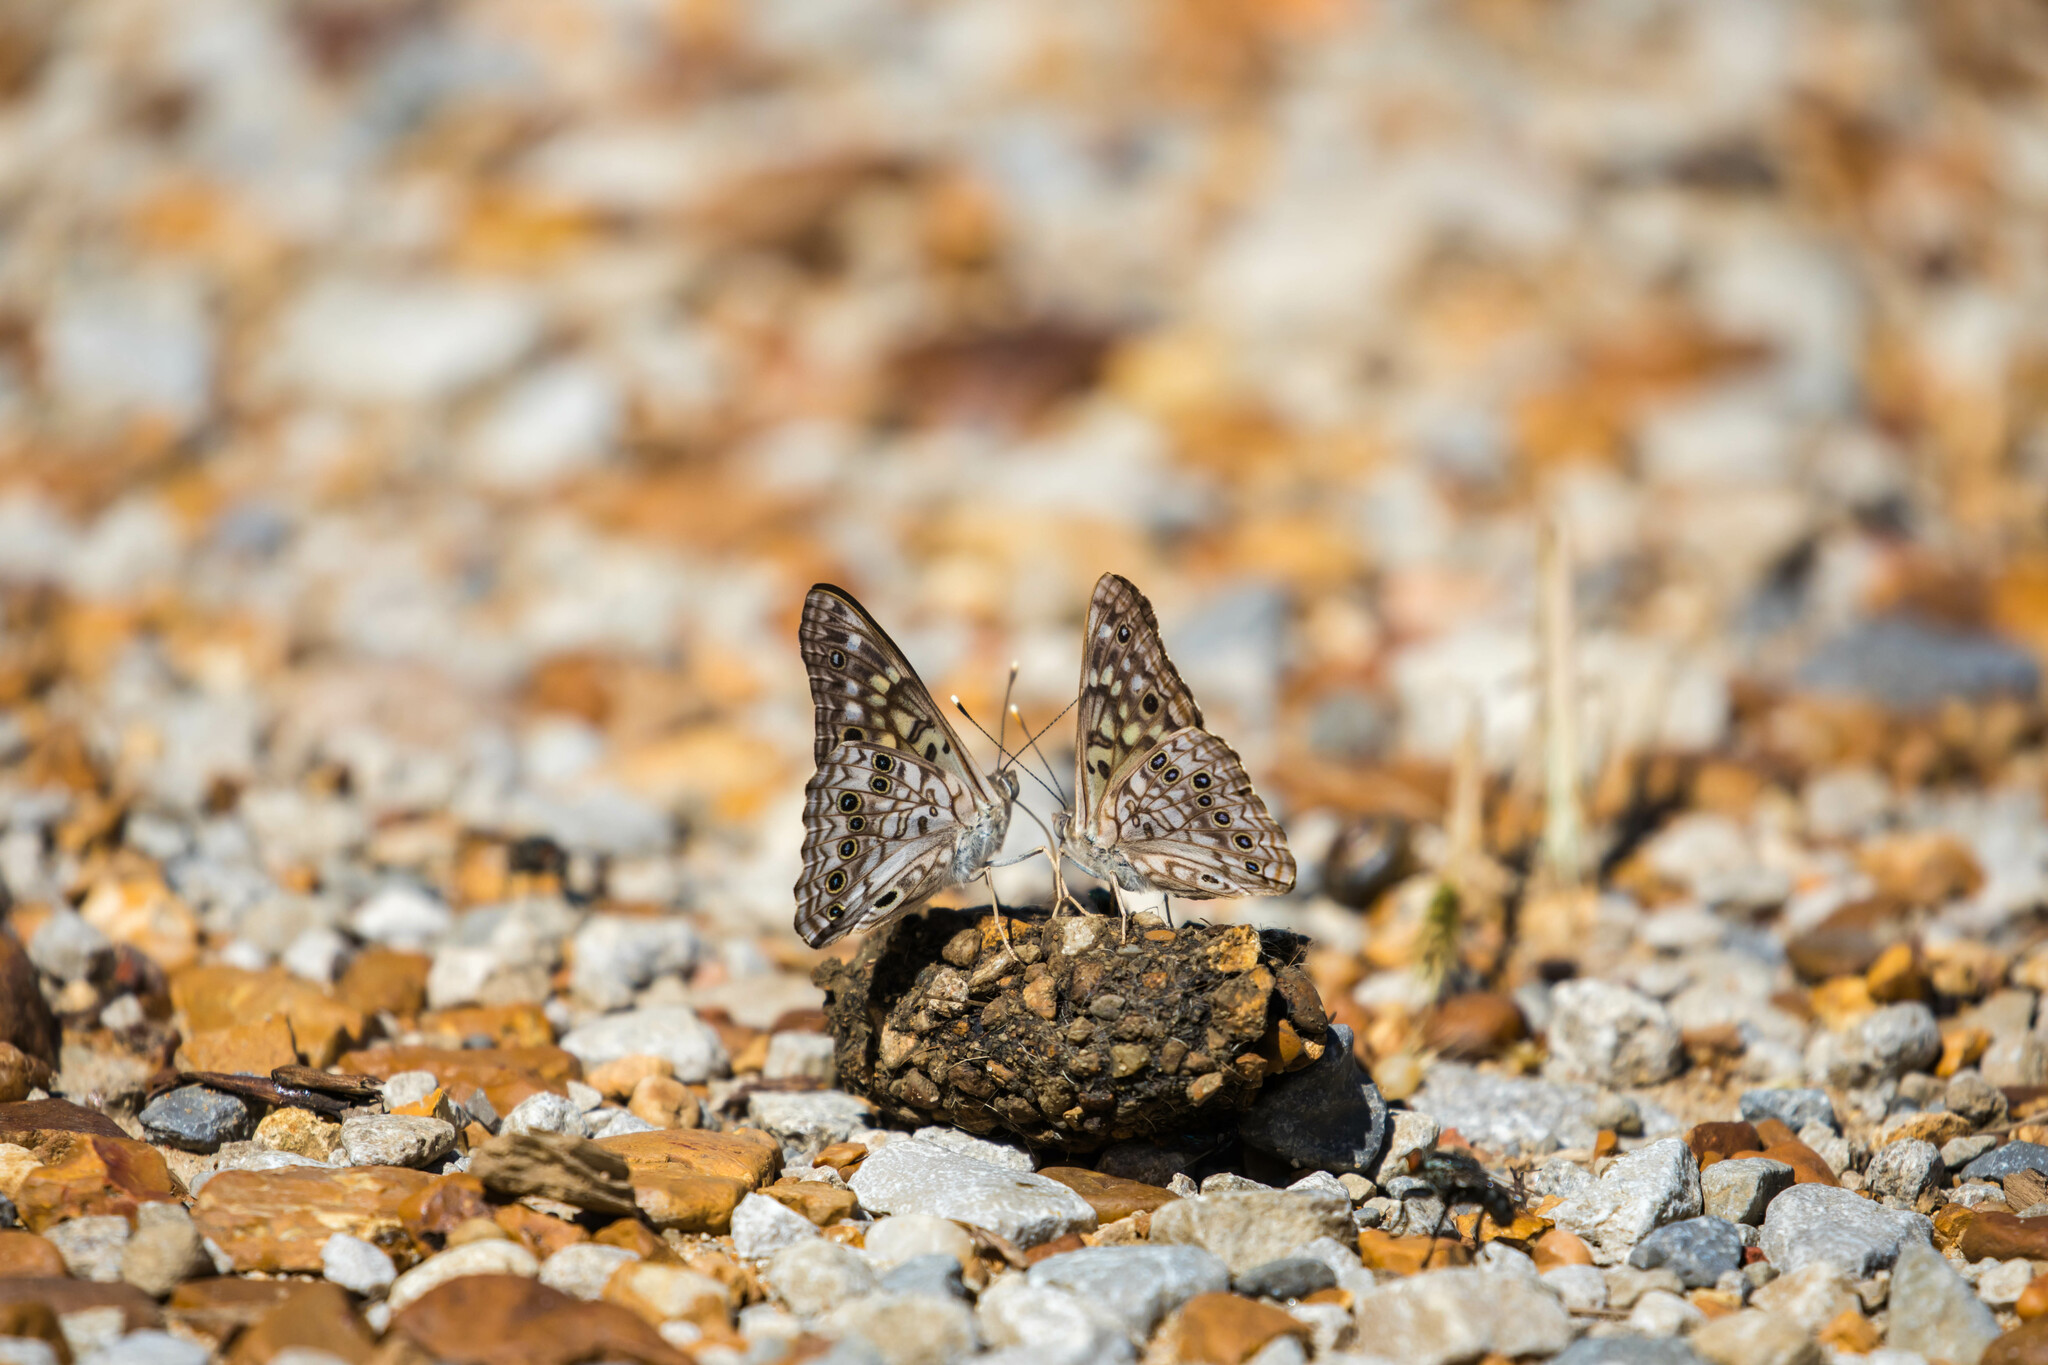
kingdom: Animalia
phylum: Arthropoda
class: Insecta
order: Lepidoptera
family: Nymphalidae
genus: Asterocampa
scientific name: Asterocampa celtis
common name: Hackberry emperor
